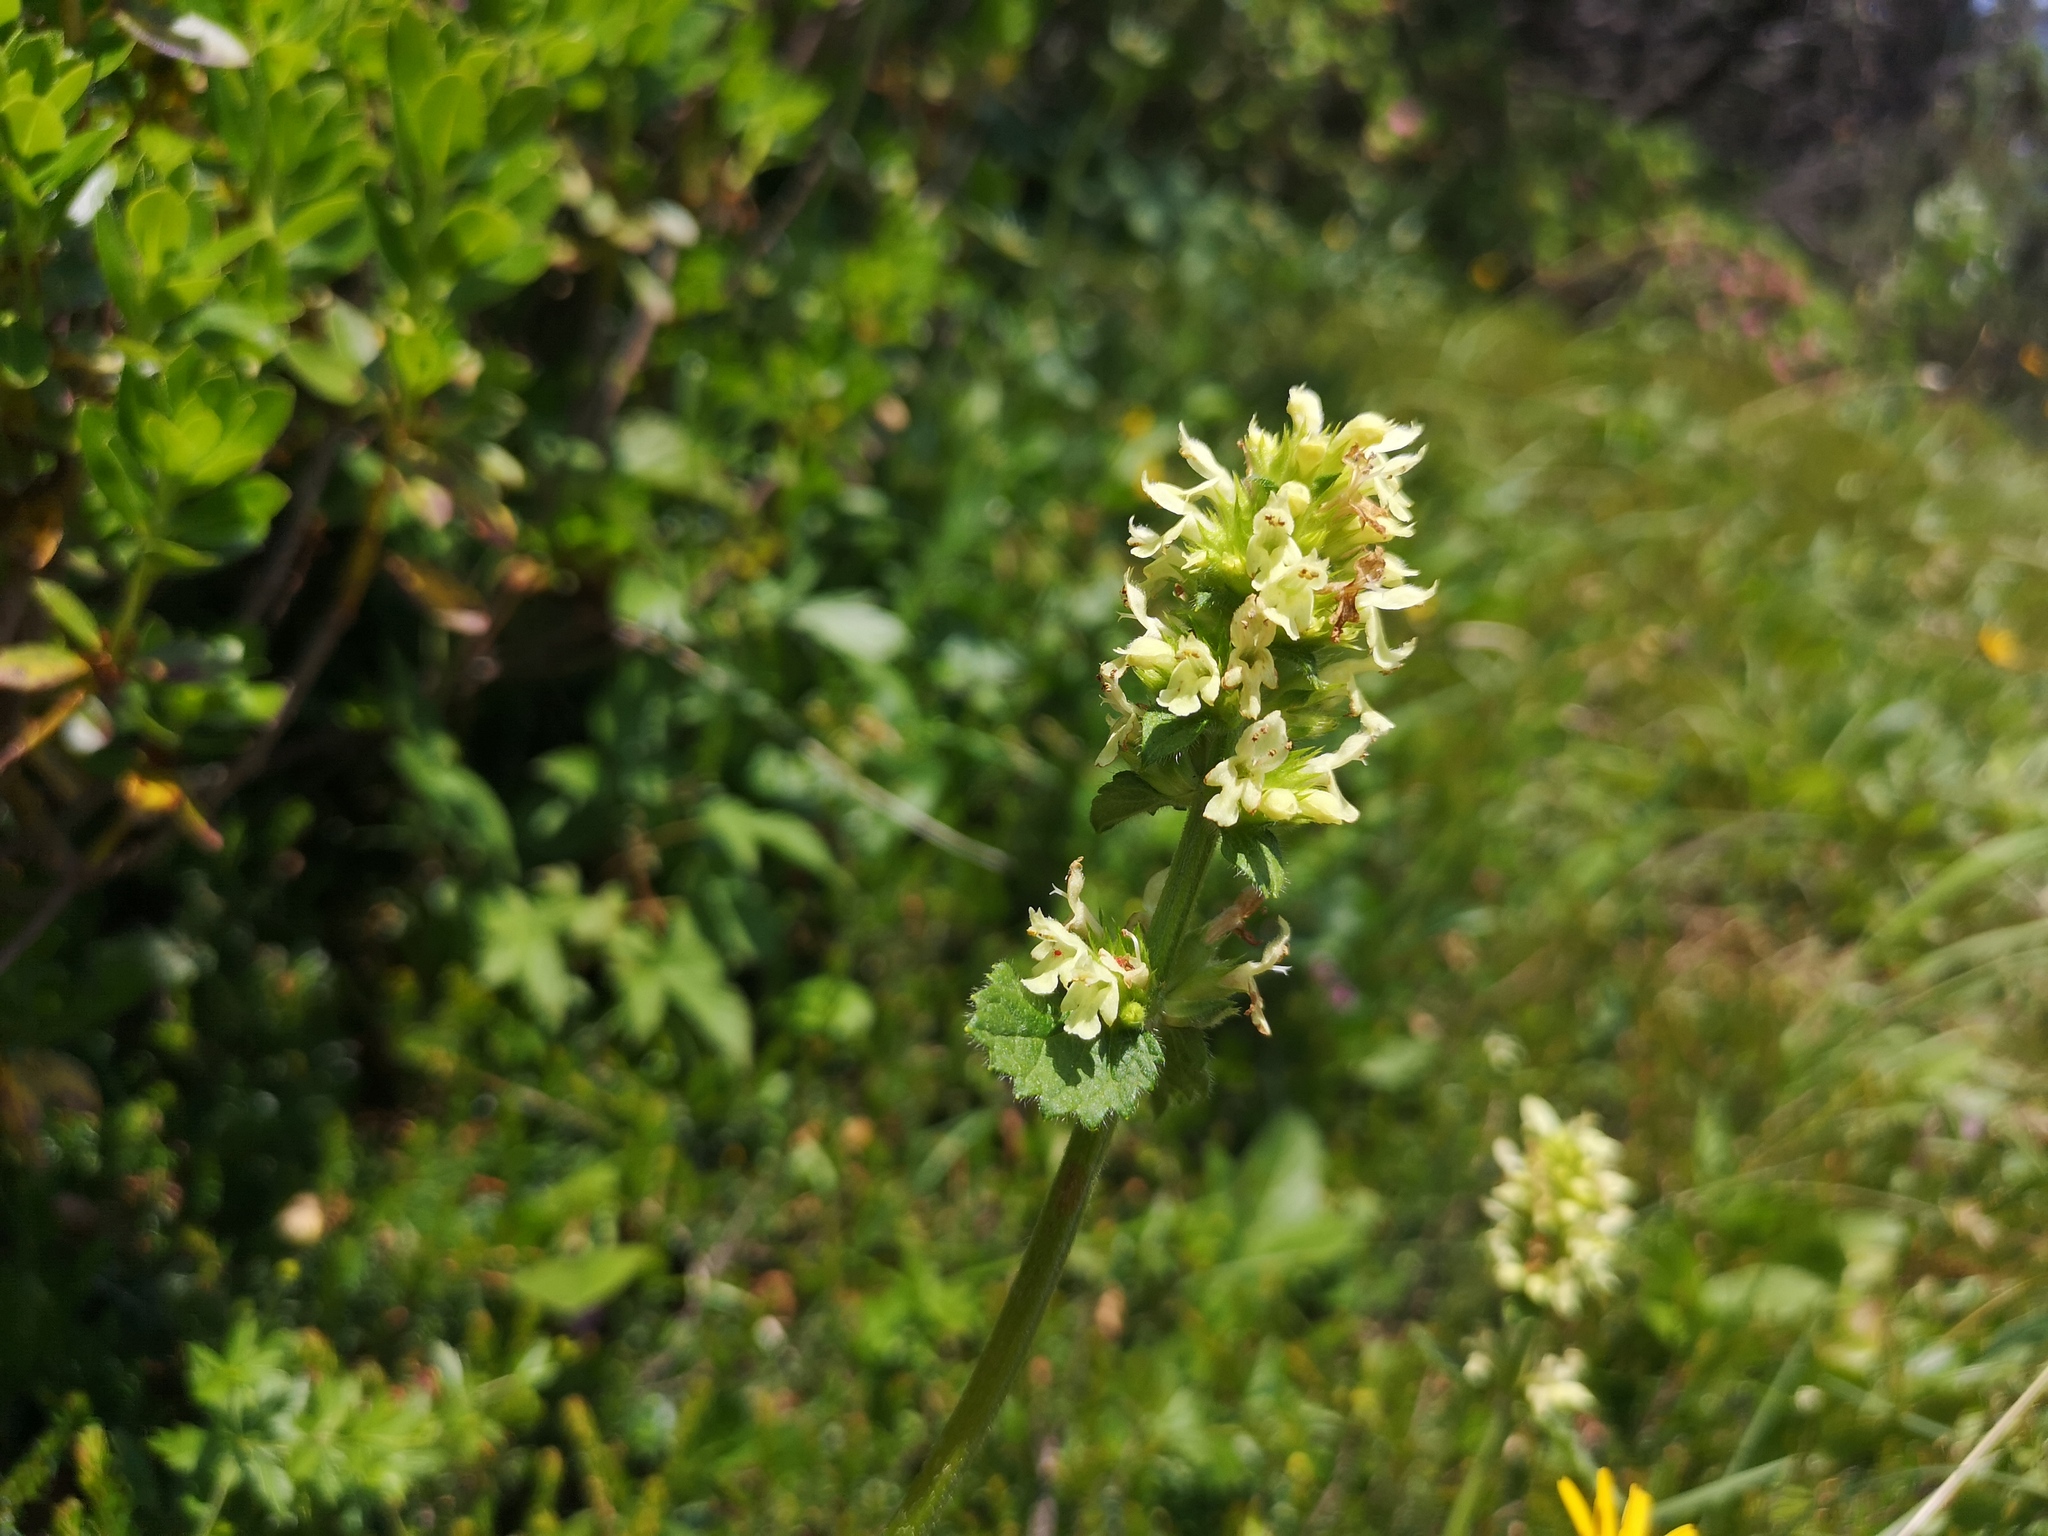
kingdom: Plantae
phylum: Tracheophyta
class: Magnoliopsida
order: Lamiales
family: Lamiaceae
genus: Betonica
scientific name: Betonica alopecuros
